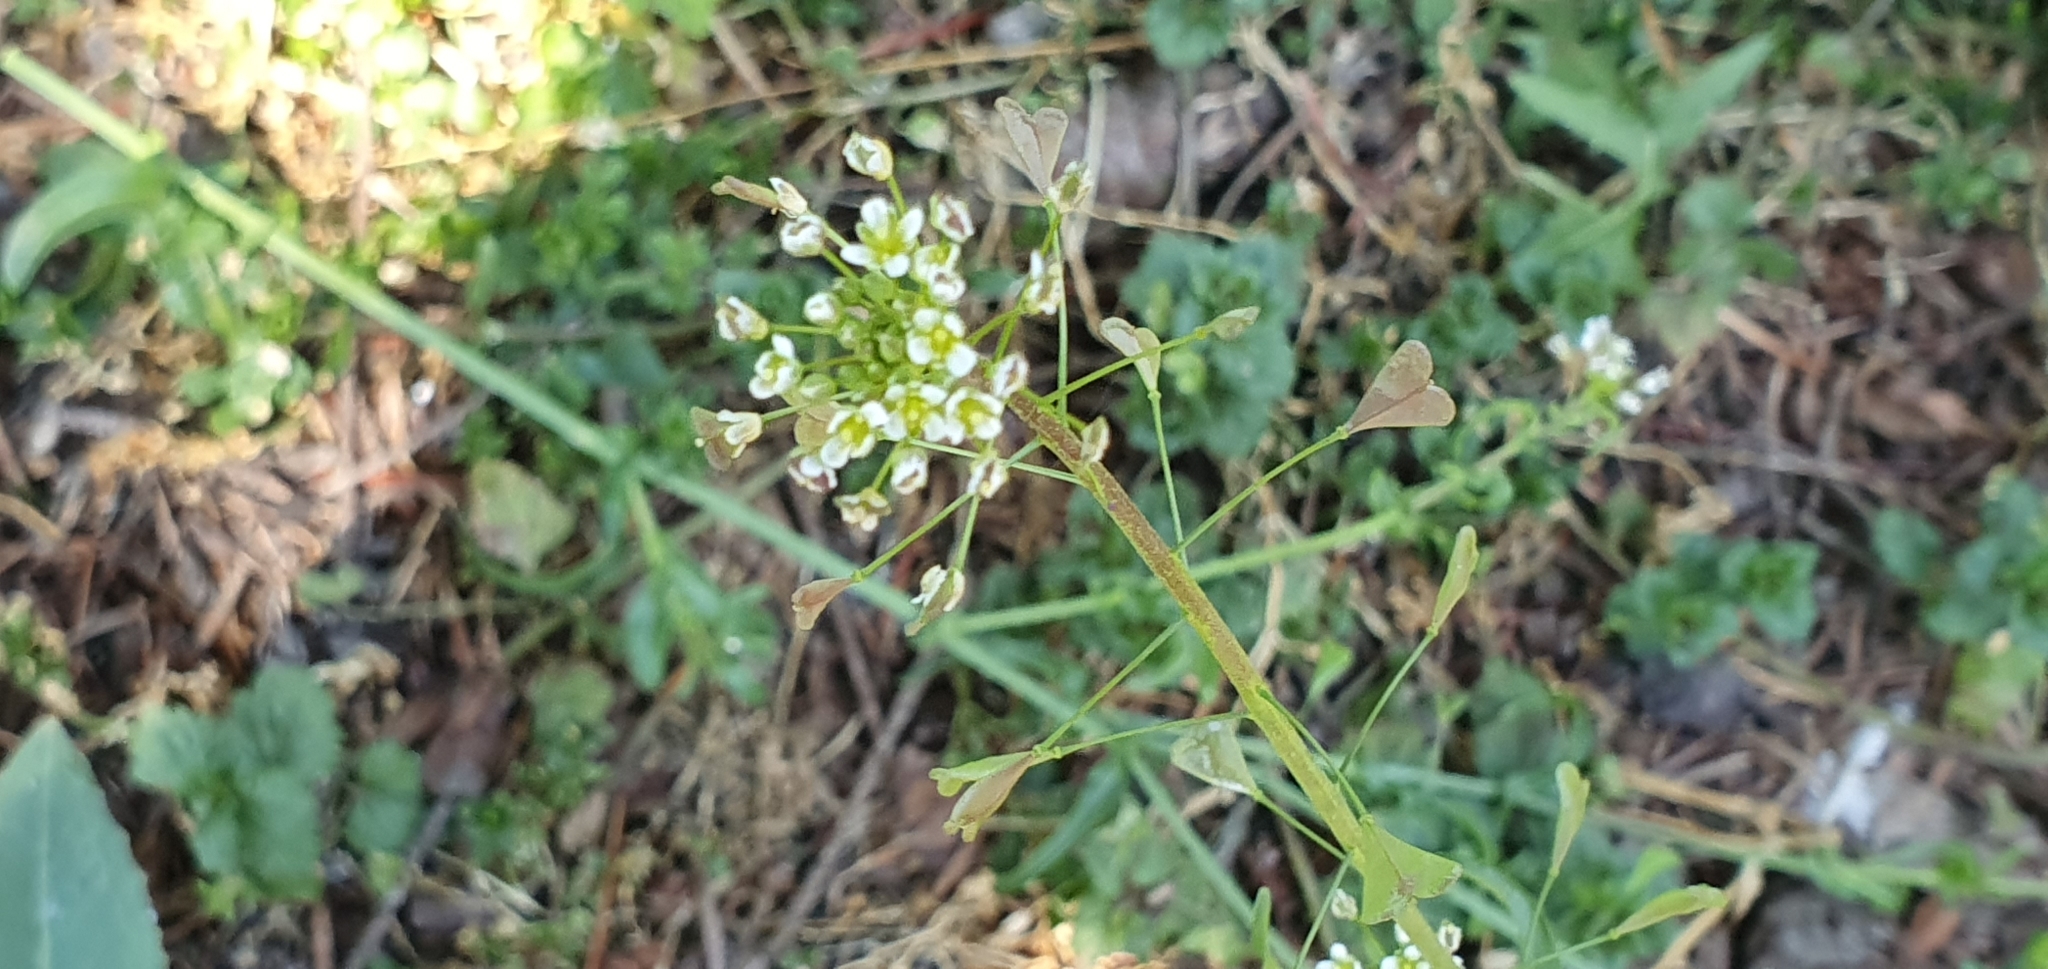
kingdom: Plantae
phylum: Tracheophyta
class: Magnoliopsida
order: Brassicales
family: Brassicaceae
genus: Capsella
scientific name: Capsella bursa-pastoris
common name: Shepherd's purse
